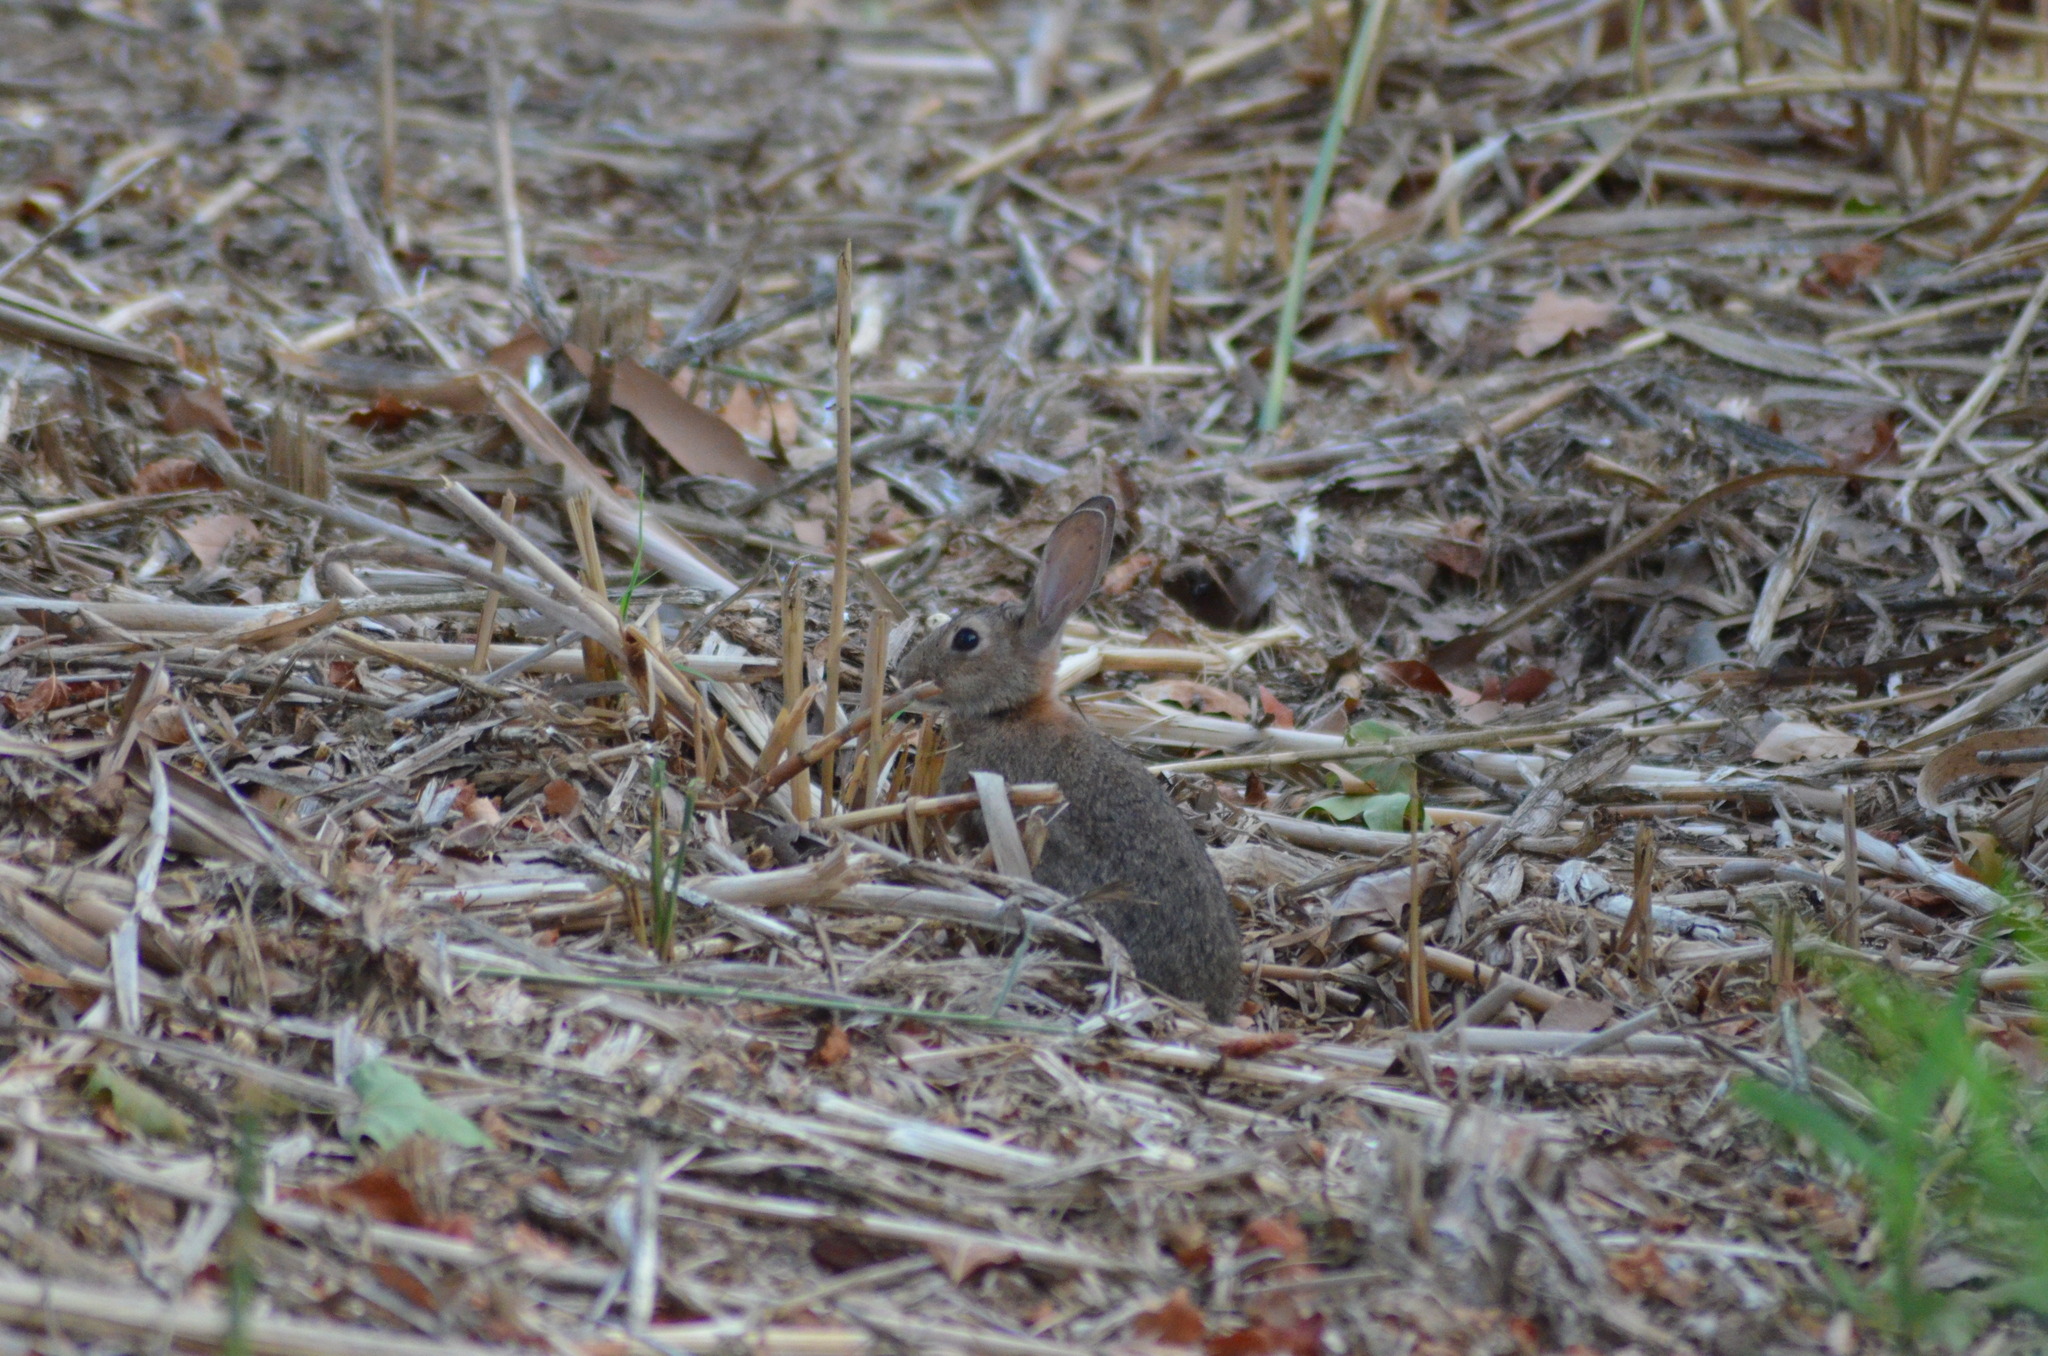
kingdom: Animalia
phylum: Chordata
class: Mammalia
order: Lagomorpha
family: Leporidae
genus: Oryctolagus
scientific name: Oryctolagus cuniculus
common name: European rabbit
